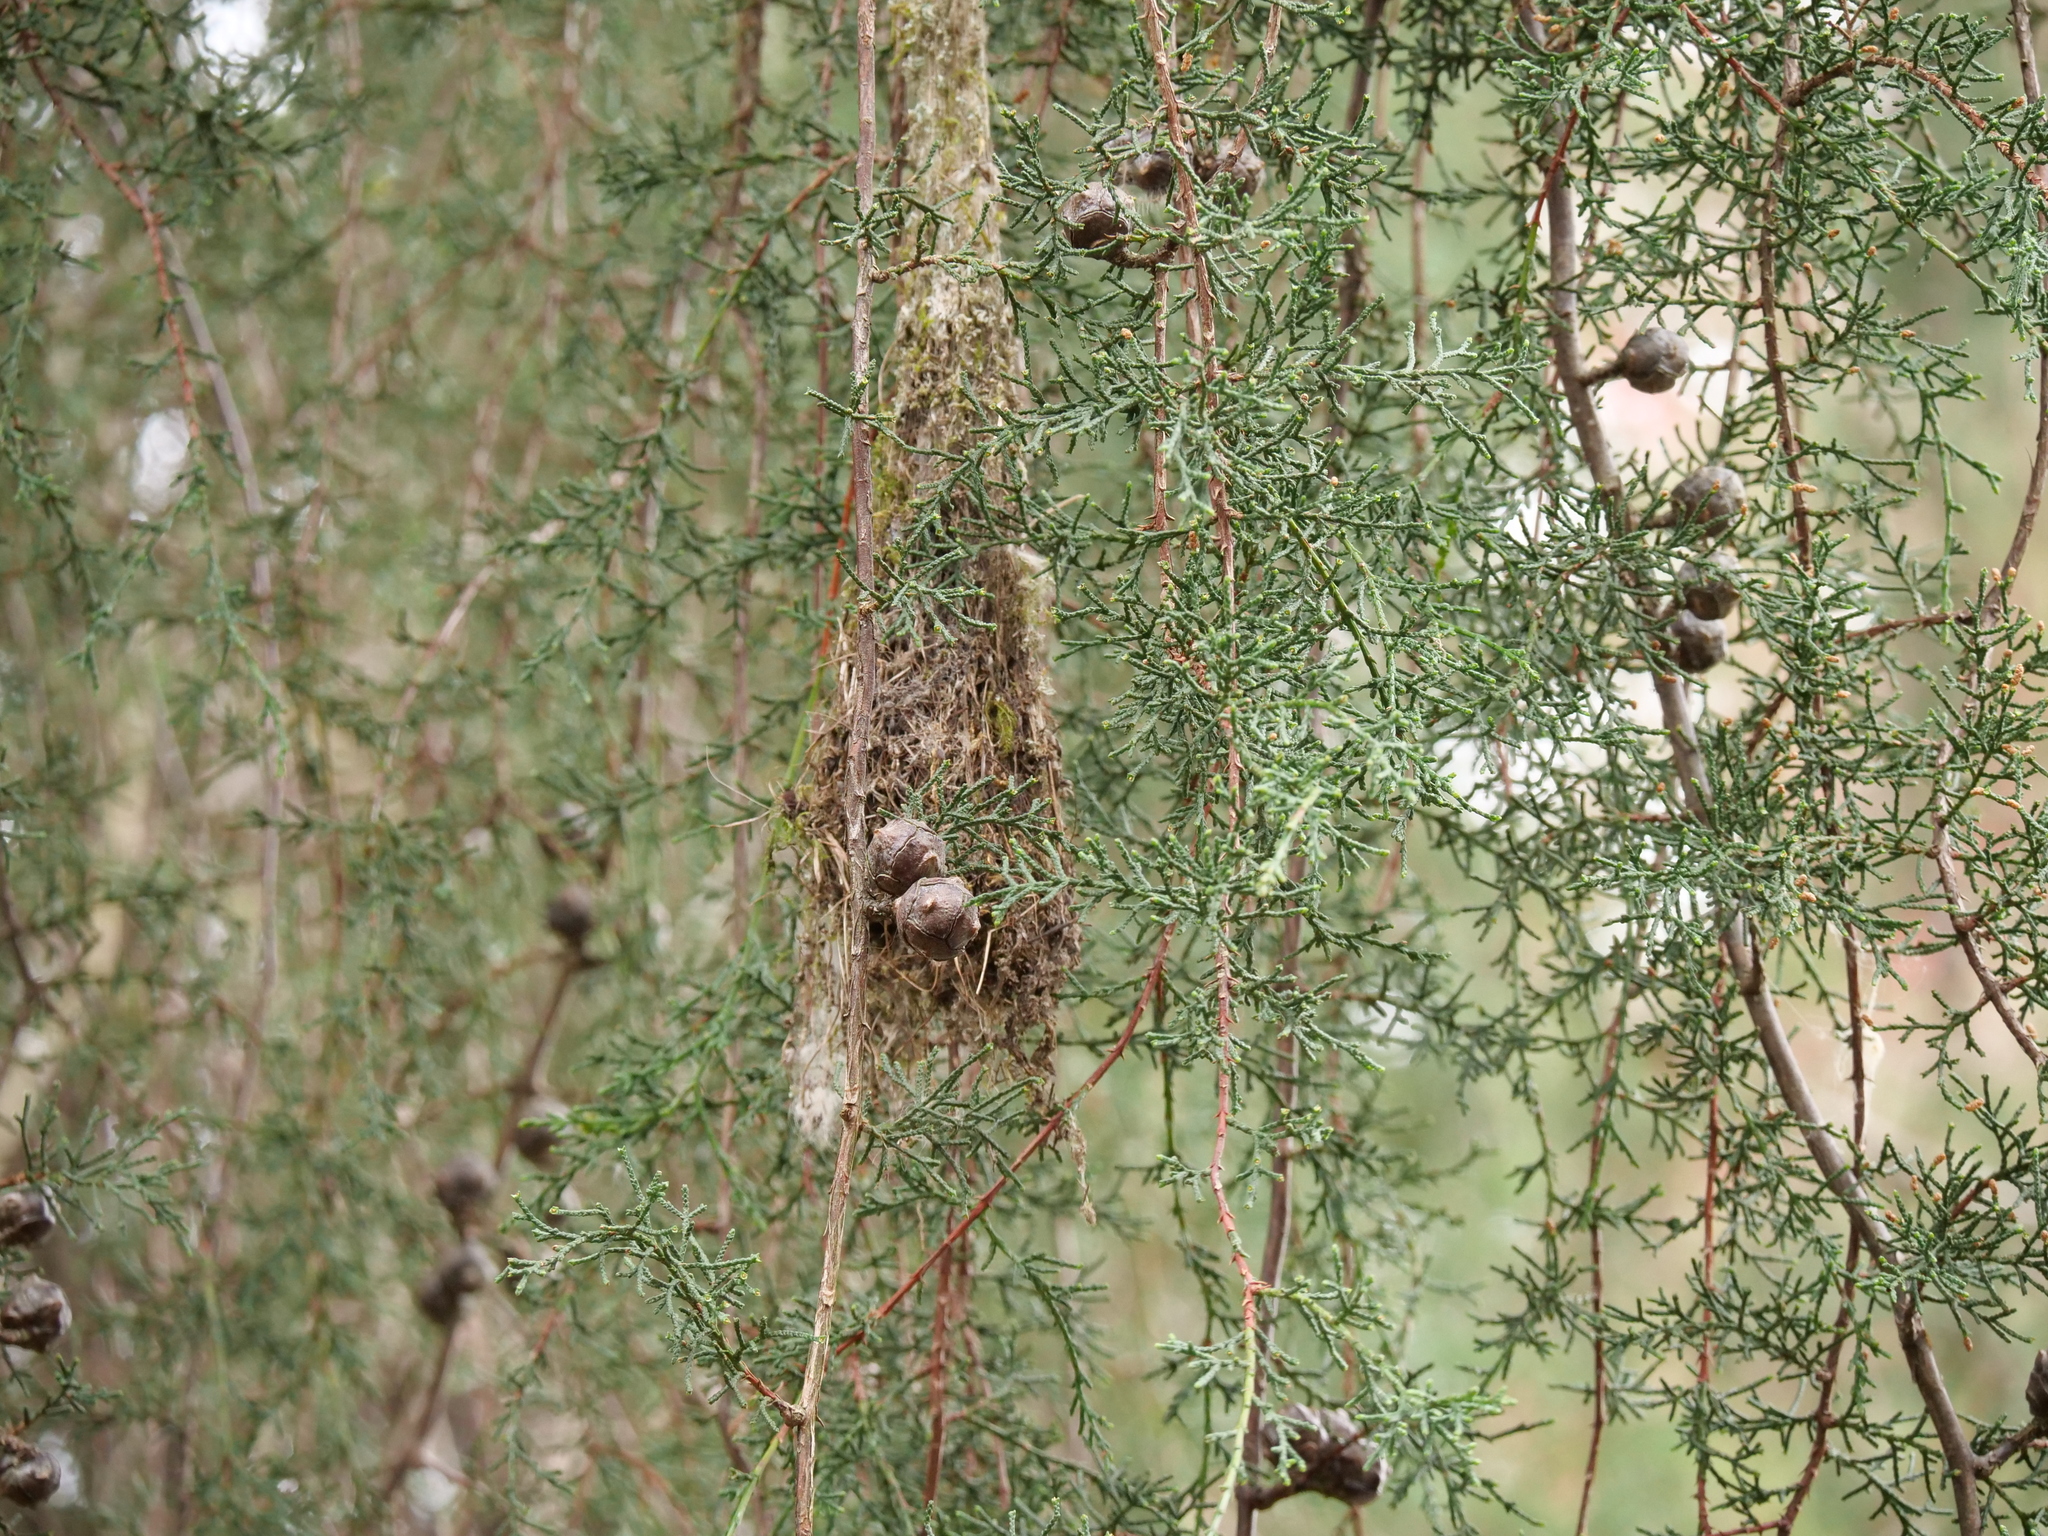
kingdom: Animalia
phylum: Chordata
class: Aves
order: Passeriformes
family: Aegithalidae
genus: Psaltriparus
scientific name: Psaltriparus minimus
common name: American bushtit
